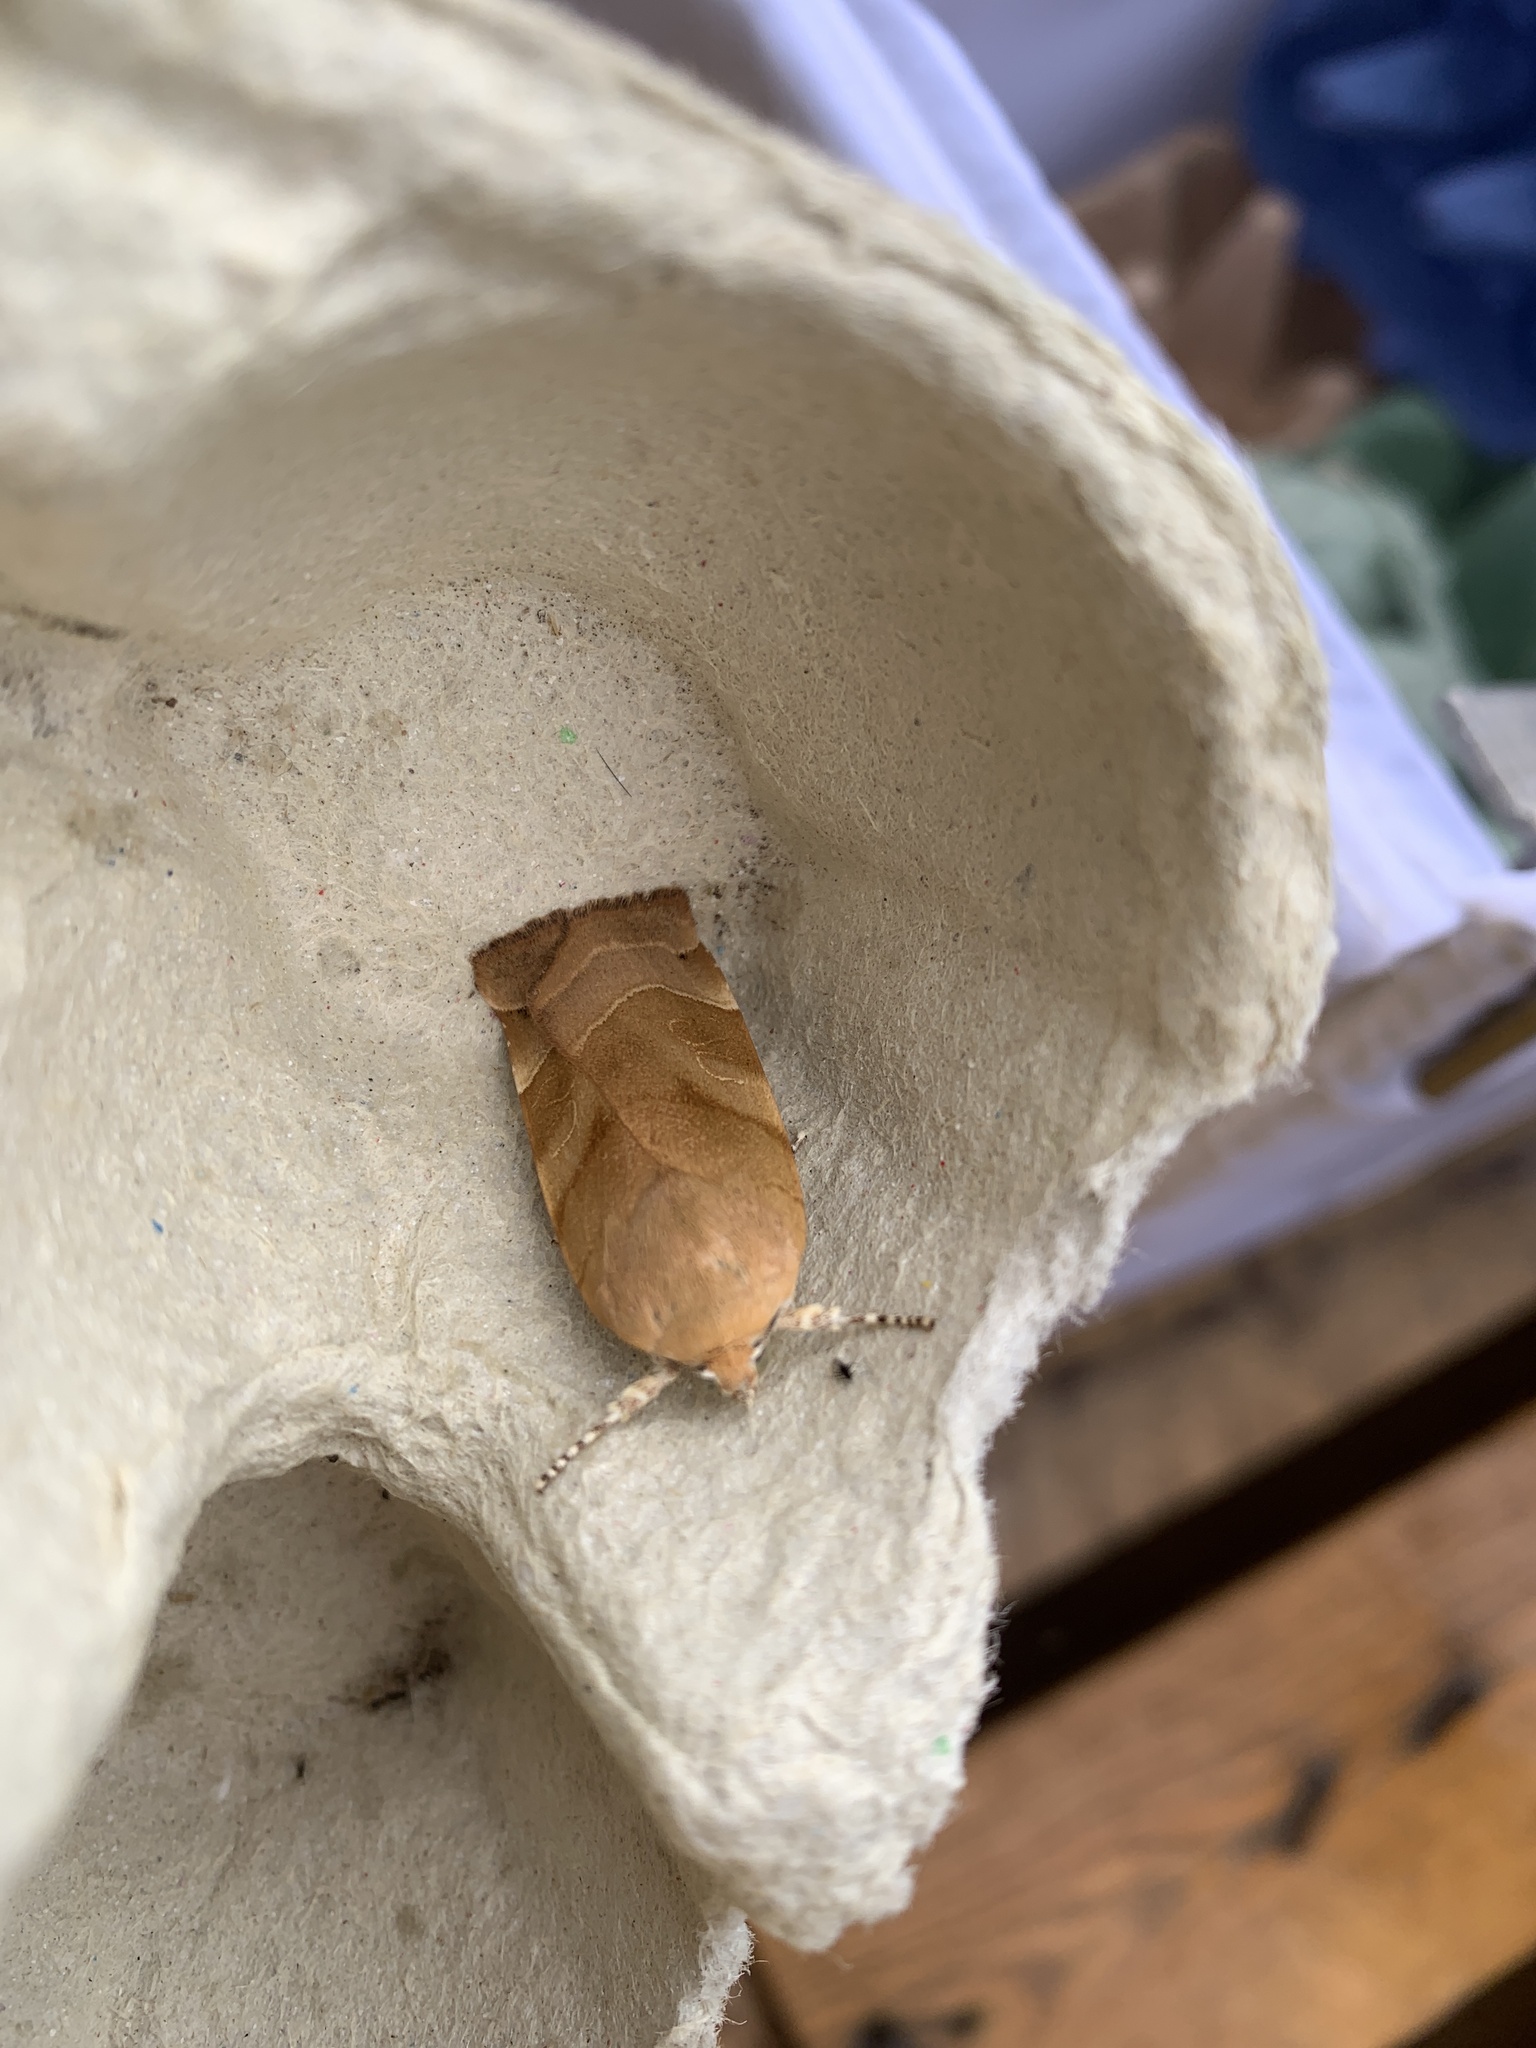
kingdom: Animalia
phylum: Arthropoda
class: Insecta
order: Lepidoptera
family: Noctuidae
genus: Noctua
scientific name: Noctua fimbriata
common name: Broad-bordered yellow underwing
